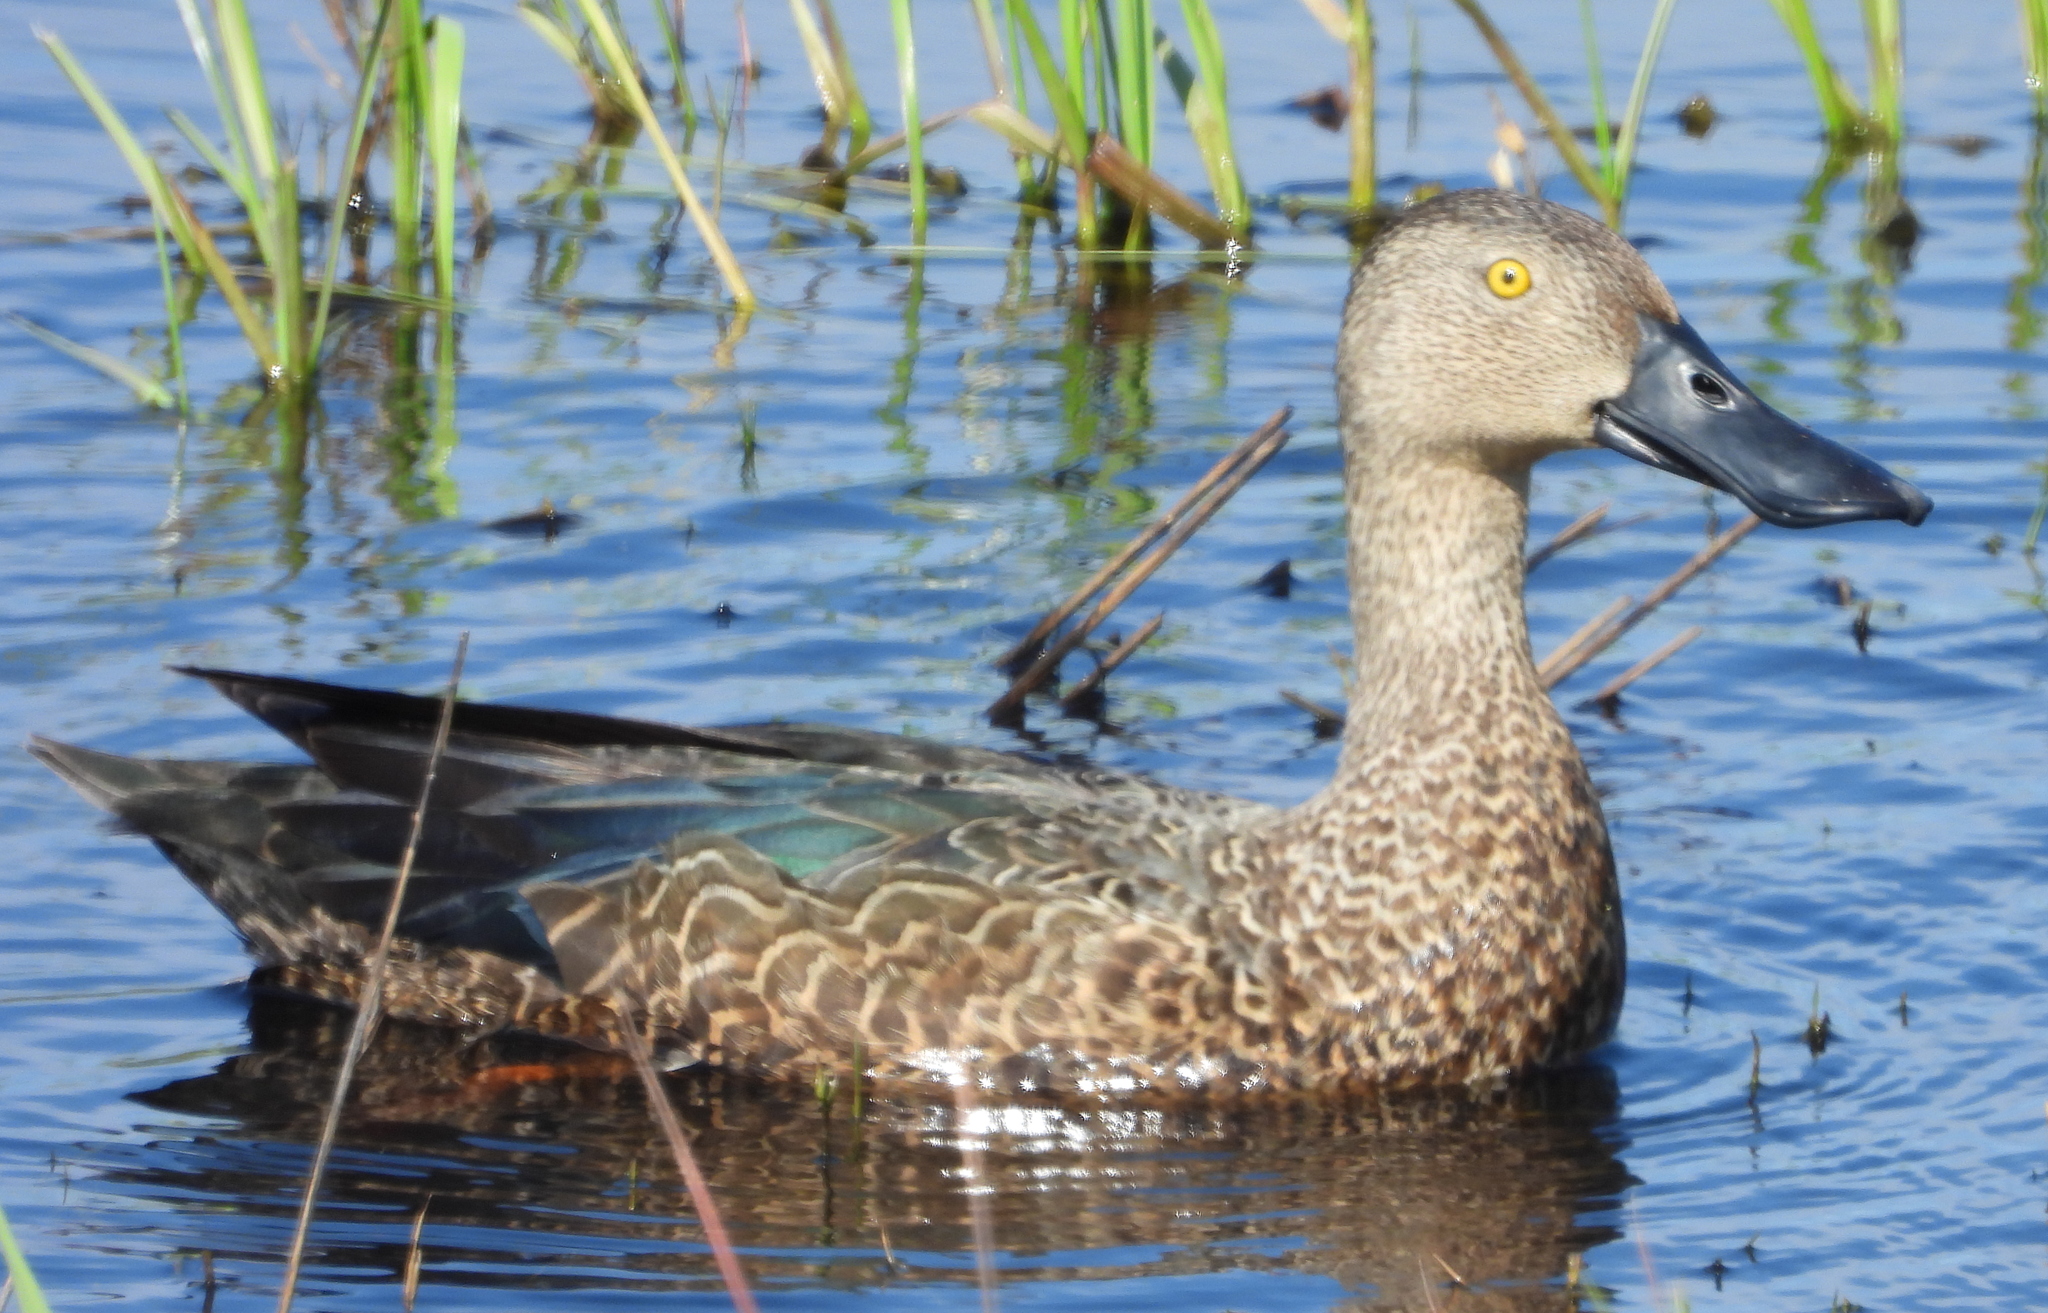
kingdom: Animalia
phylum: Chordata
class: Aves
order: Anseriformes
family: Anatidae
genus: Spatula
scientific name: Spatula smithii
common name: Cape shoveler
